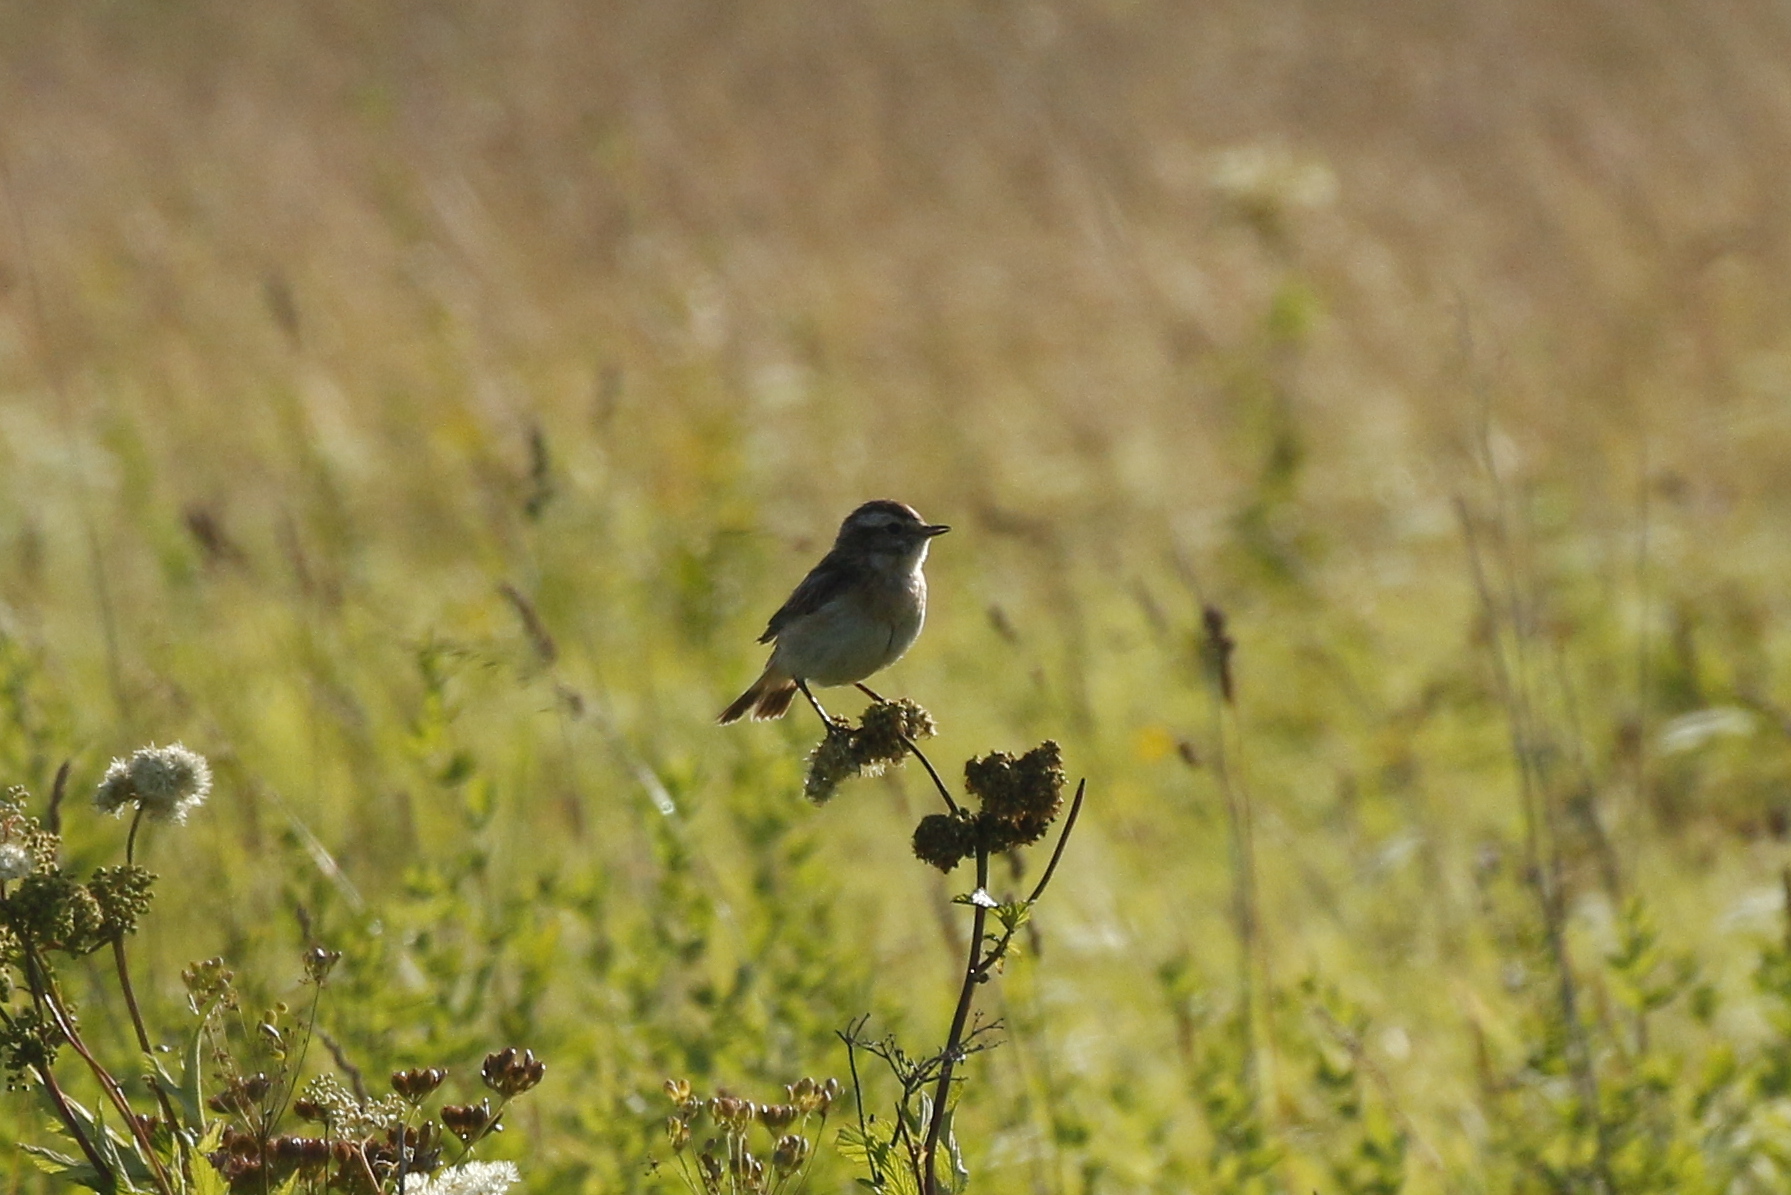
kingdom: Animalia
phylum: Chordata
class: Aves
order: Passeriformes
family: Muscicapidae
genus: Saxicola
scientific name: Saxicola rubetra
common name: Whinchat
